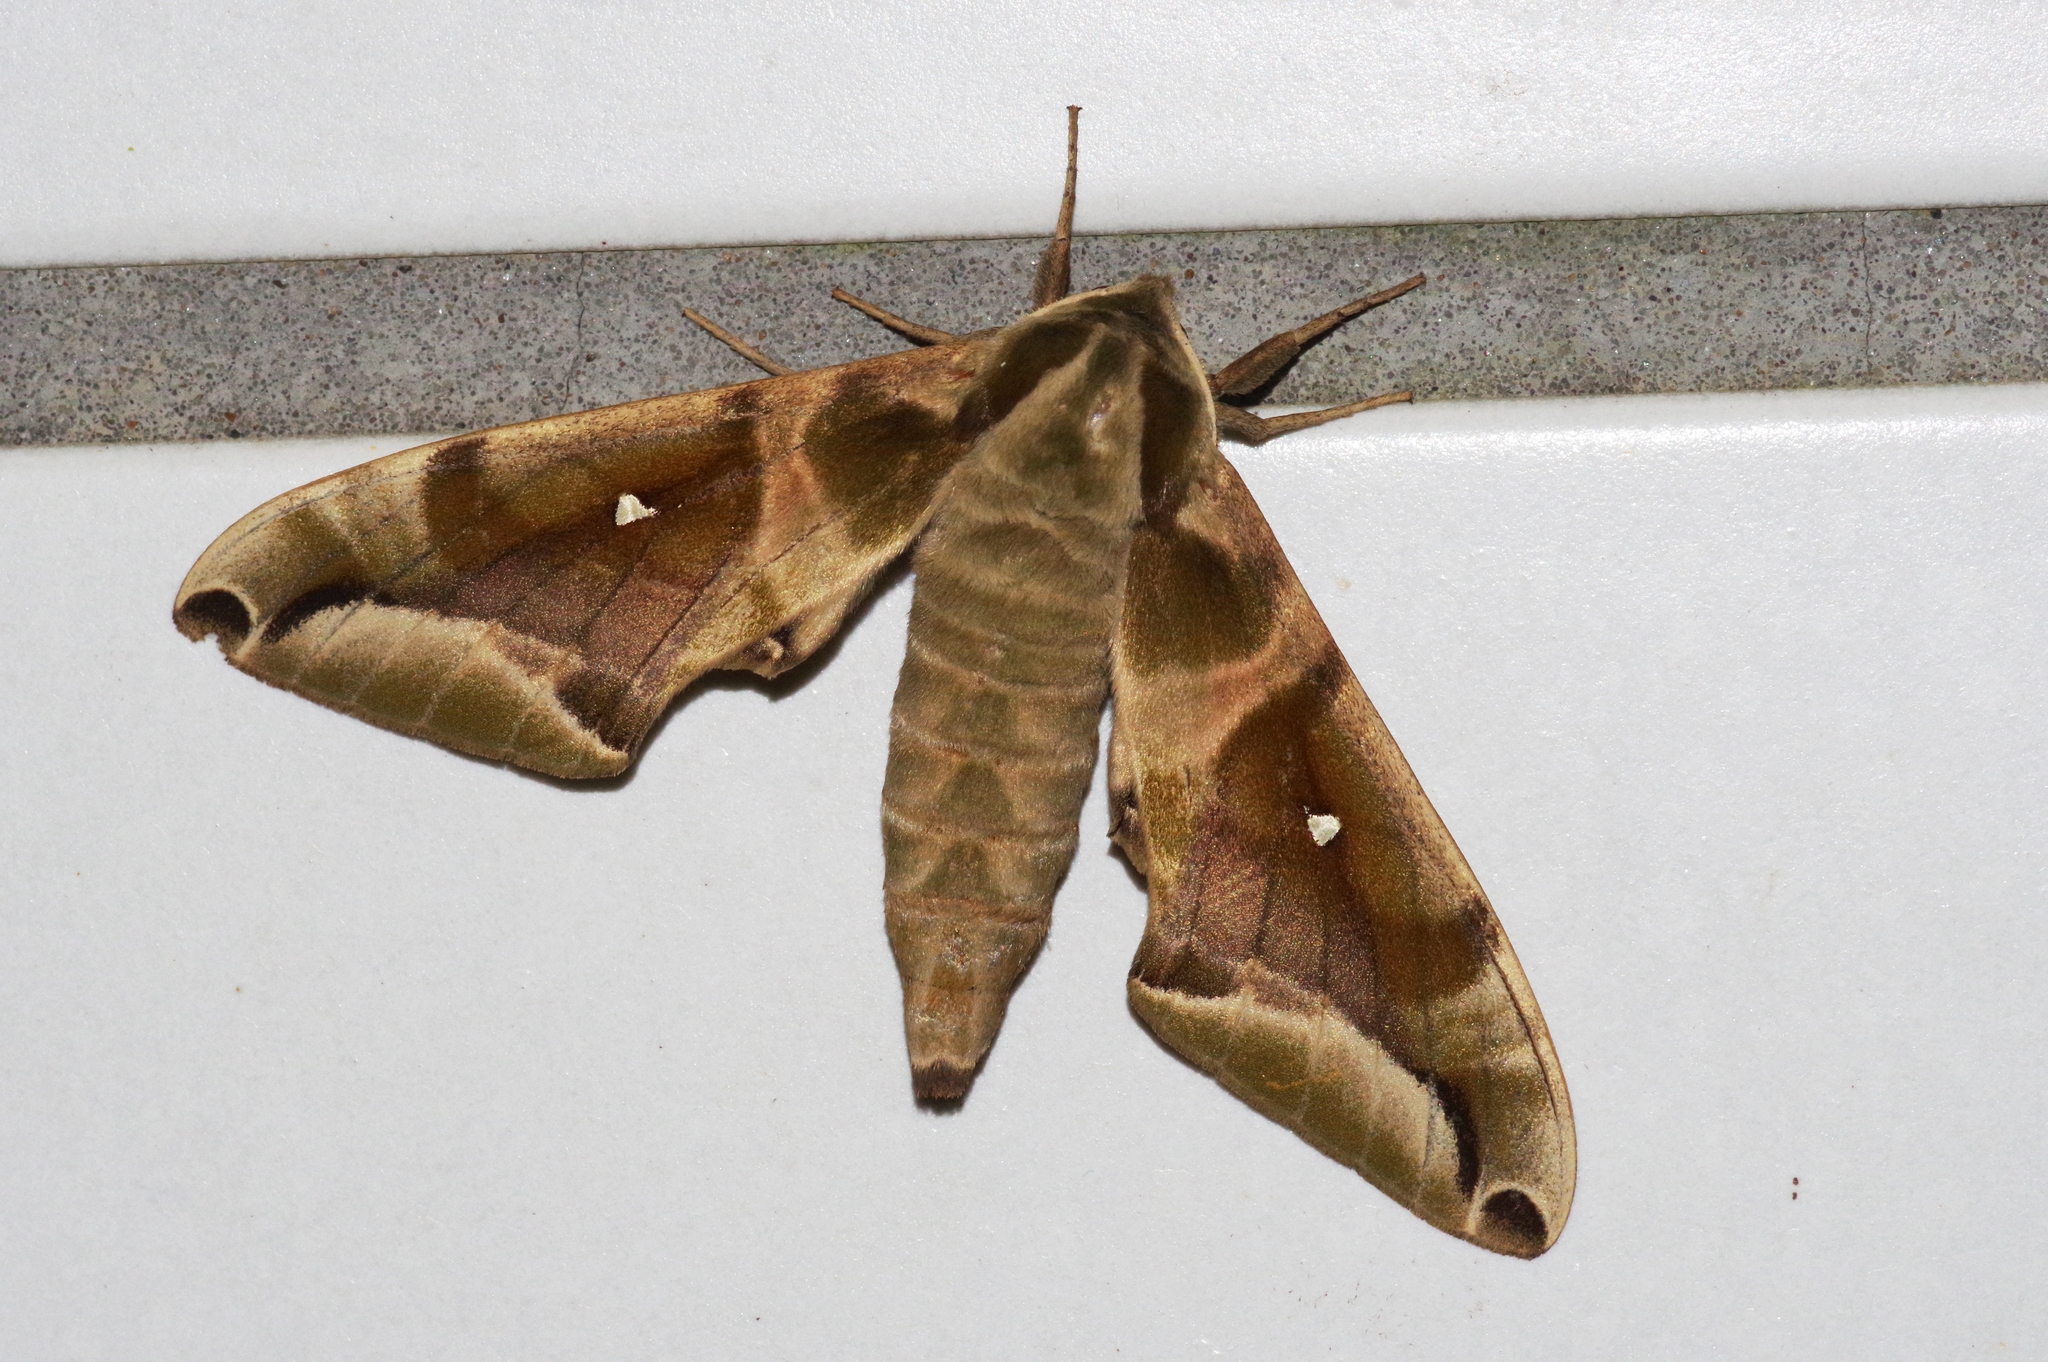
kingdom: Animalia
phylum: Arthropoda
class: Insecta
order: Lepidoptera
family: Sphingidae
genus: Parum
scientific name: Parum colligata
